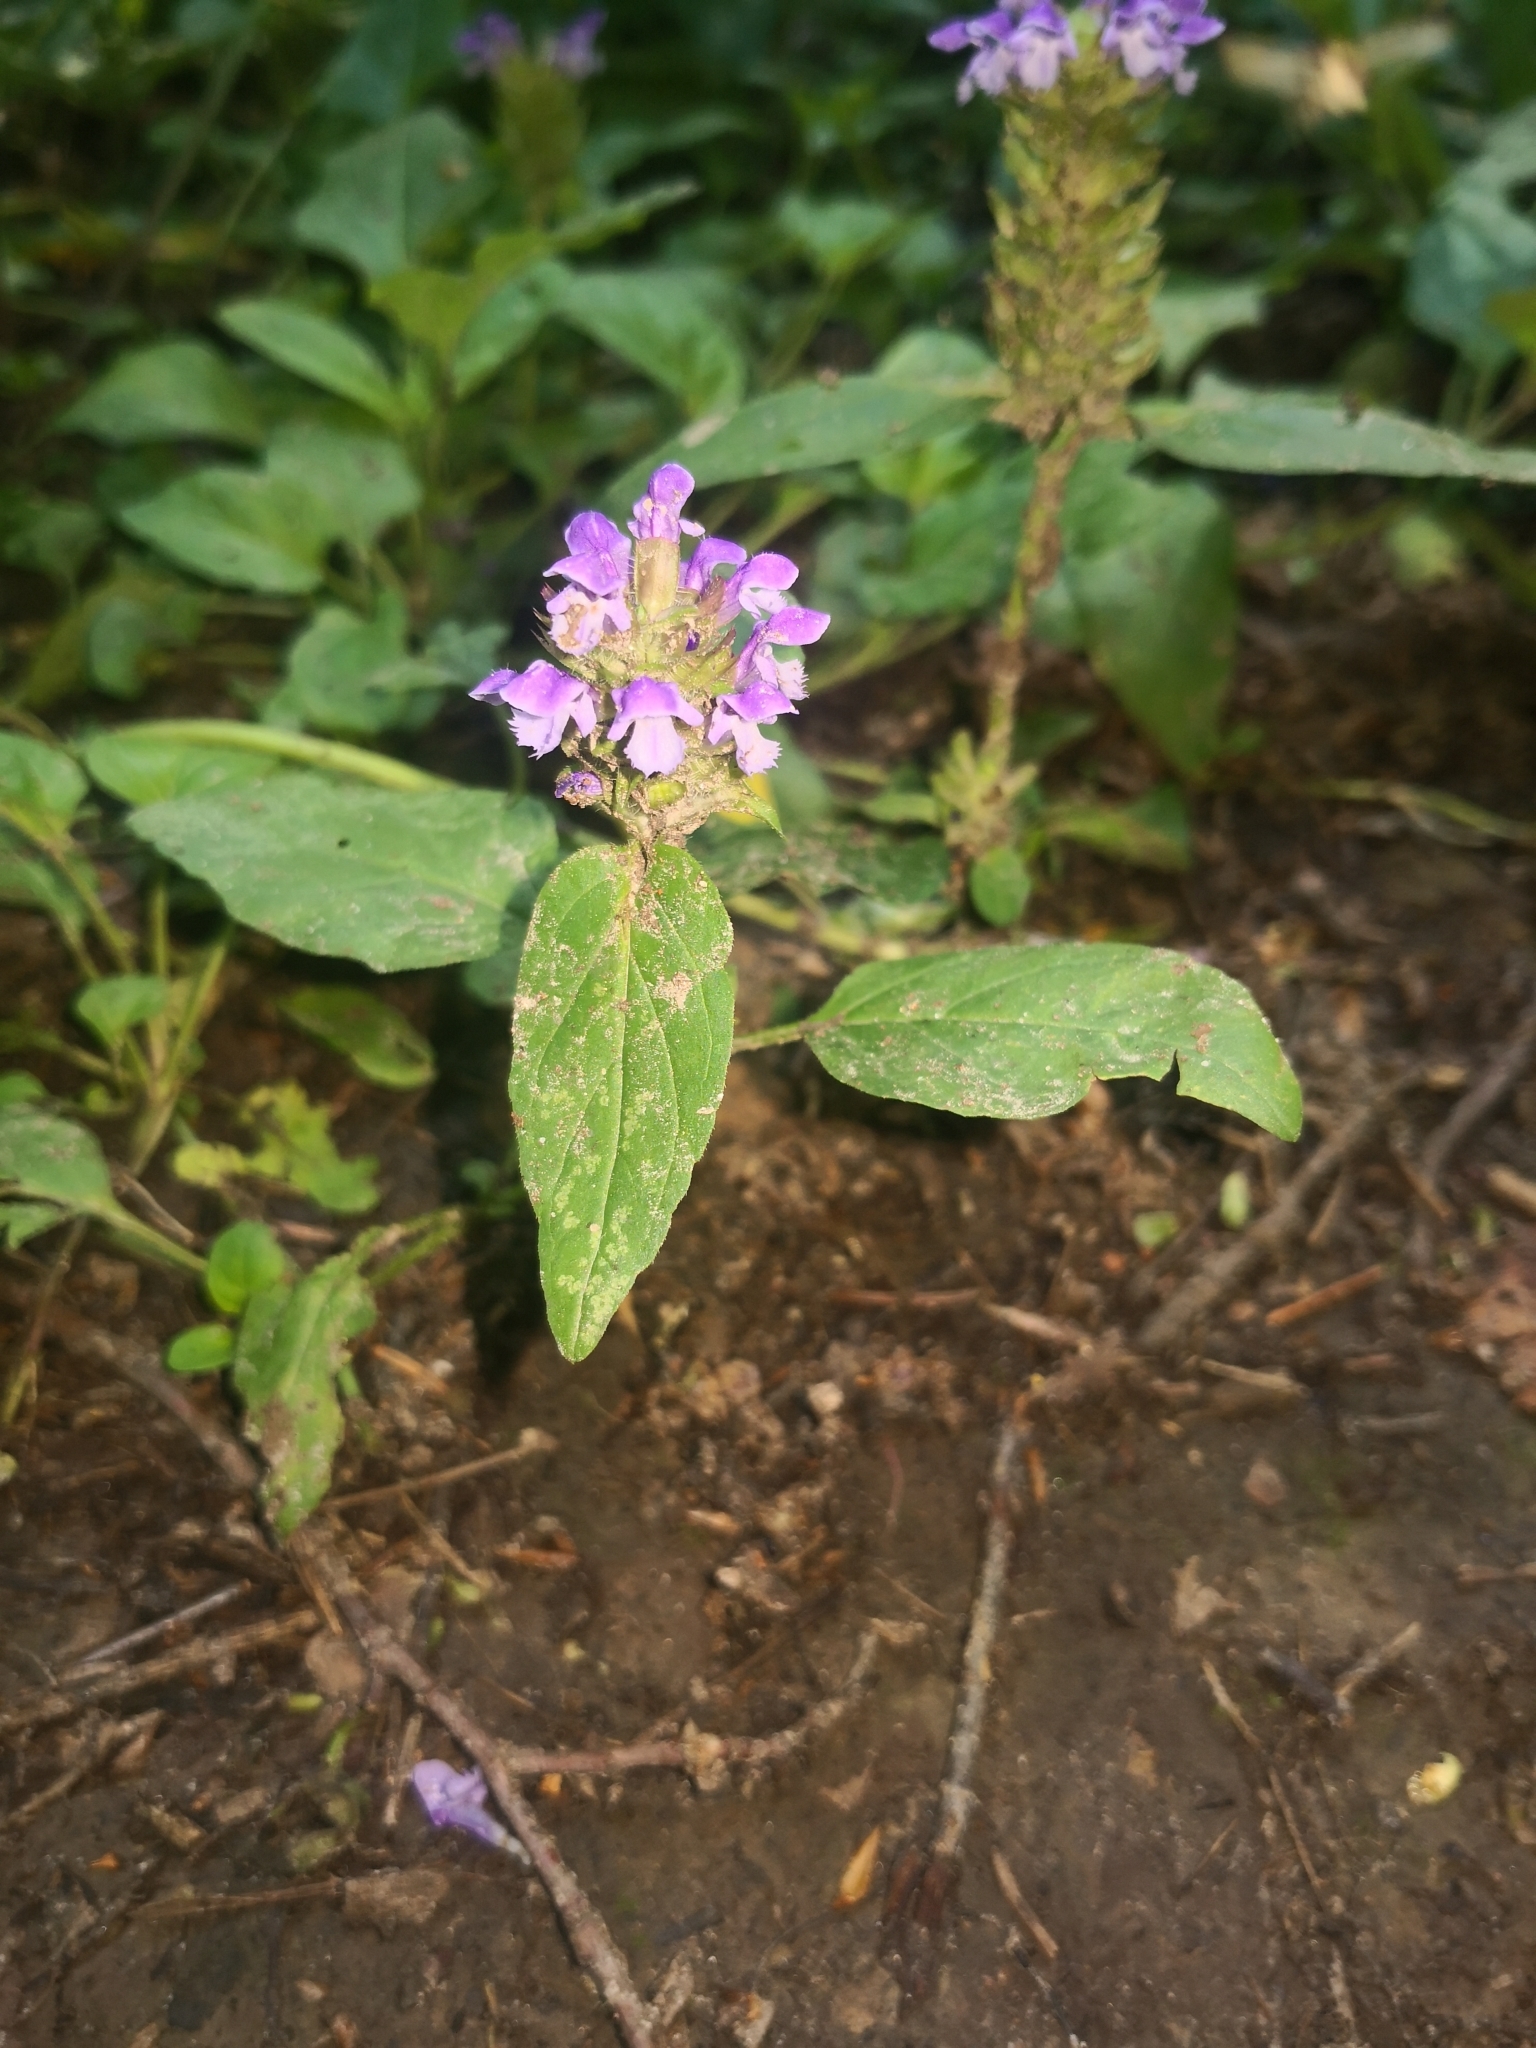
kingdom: Plantae
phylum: Tracheophyta
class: Magnoliopsida
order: Lamiales
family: Lamiaceae
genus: Prunella
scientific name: Prunella vulgaris
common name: Heal-all
